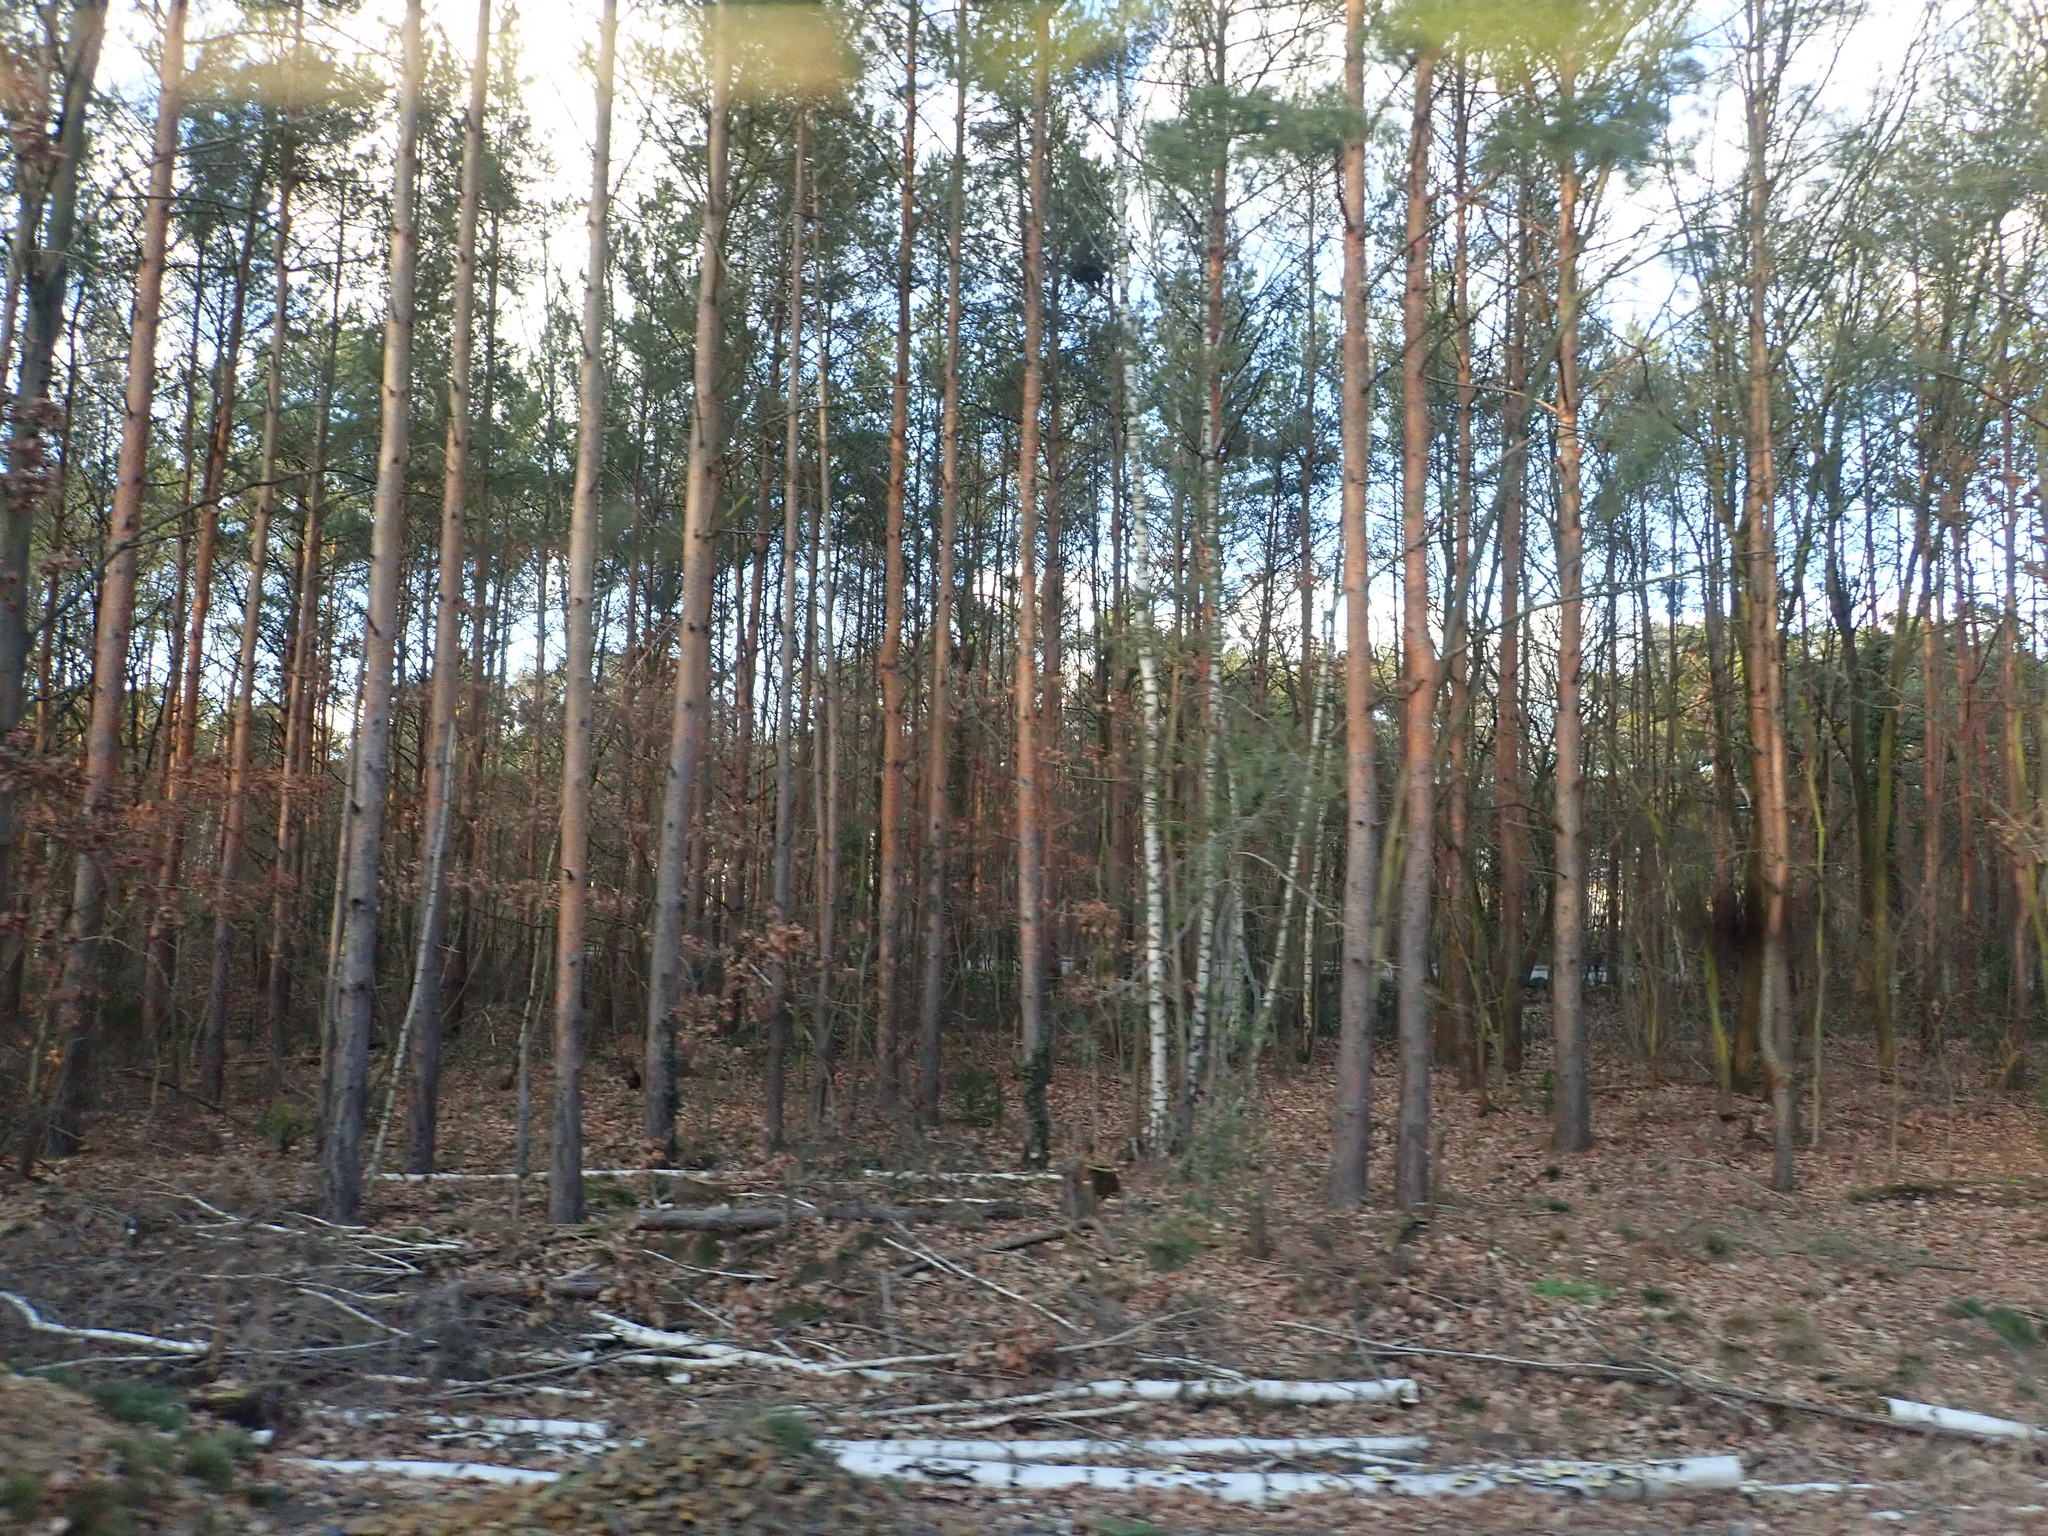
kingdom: Plantae
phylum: Tracheophyta
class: Pinopsida
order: Pinales
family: Pinaceae
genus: Pinus
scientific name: Pinus sylvestris
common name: Scots pine
